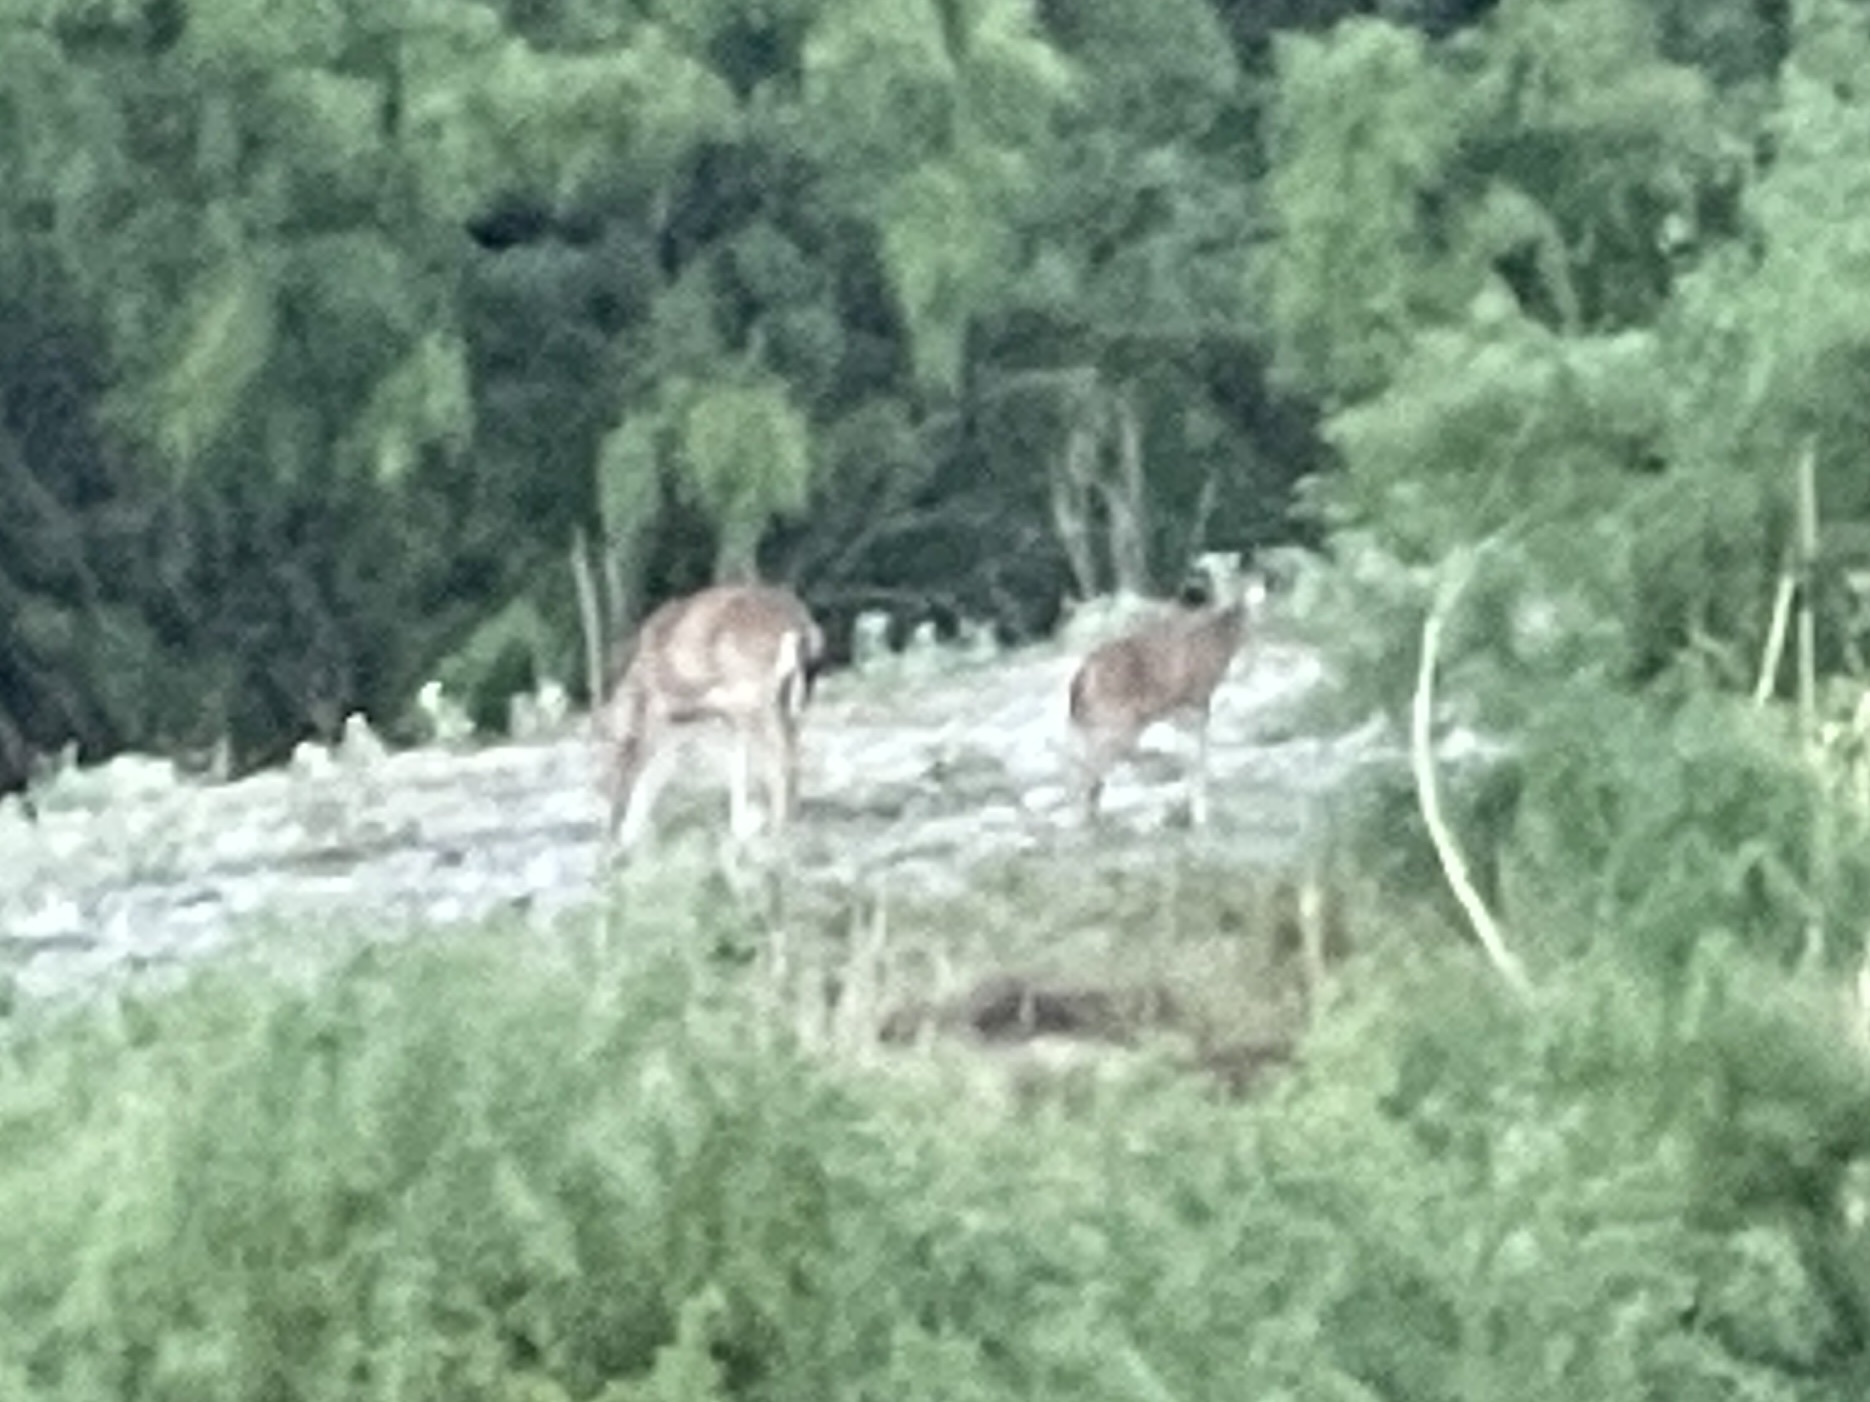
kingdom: Animalia
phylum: Chordata
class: Mammalia
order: Artiodactyla
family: Cervidae
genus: Odocoileus
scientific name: Odocoileus virginianus
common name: White-tailed deer
